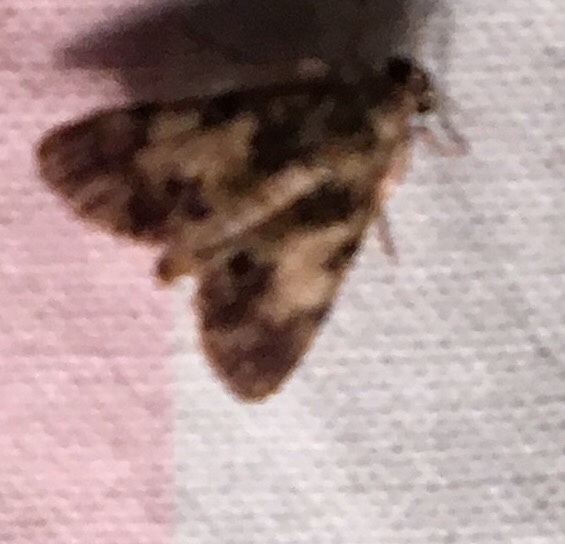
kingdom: Animalia
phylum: Arthropoda
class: Insecta
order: Lepidoptera
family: Pyralidae
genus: Macalla
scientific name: Macalla finstanalis
